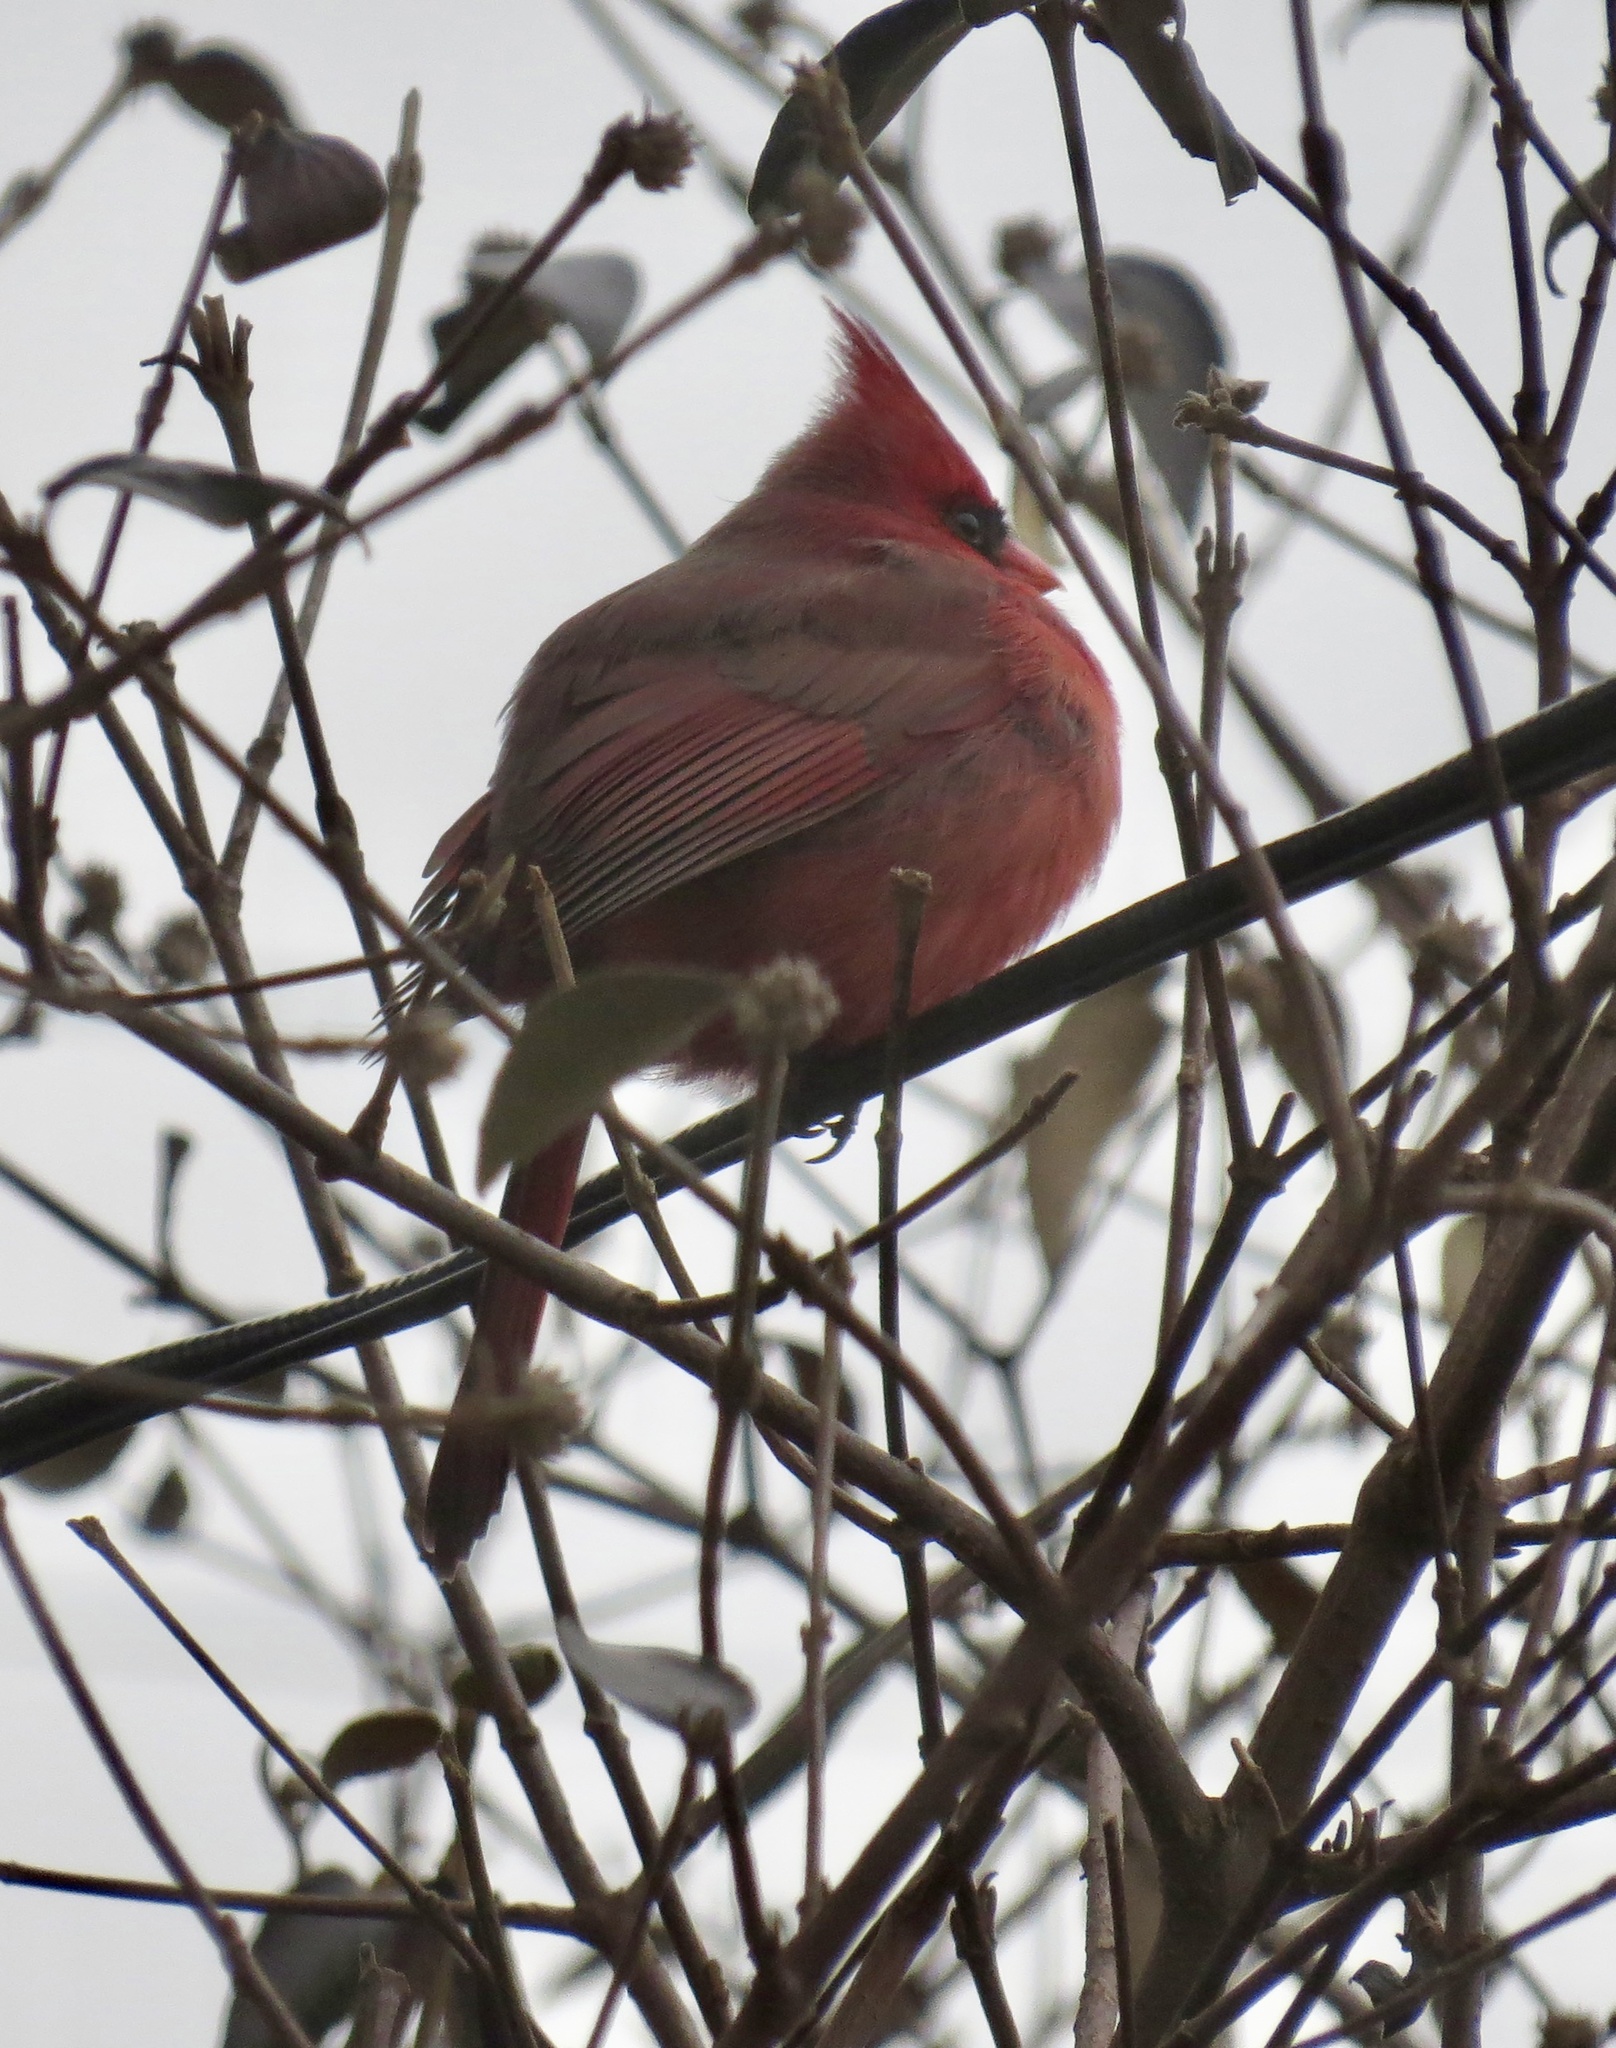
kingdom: Animalia
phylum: Chordata
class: Aves
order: Passeriformes
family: Cardinalidae
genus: Cardinalis
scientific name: Cardinalis cardinalis
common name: Northern cardinal
